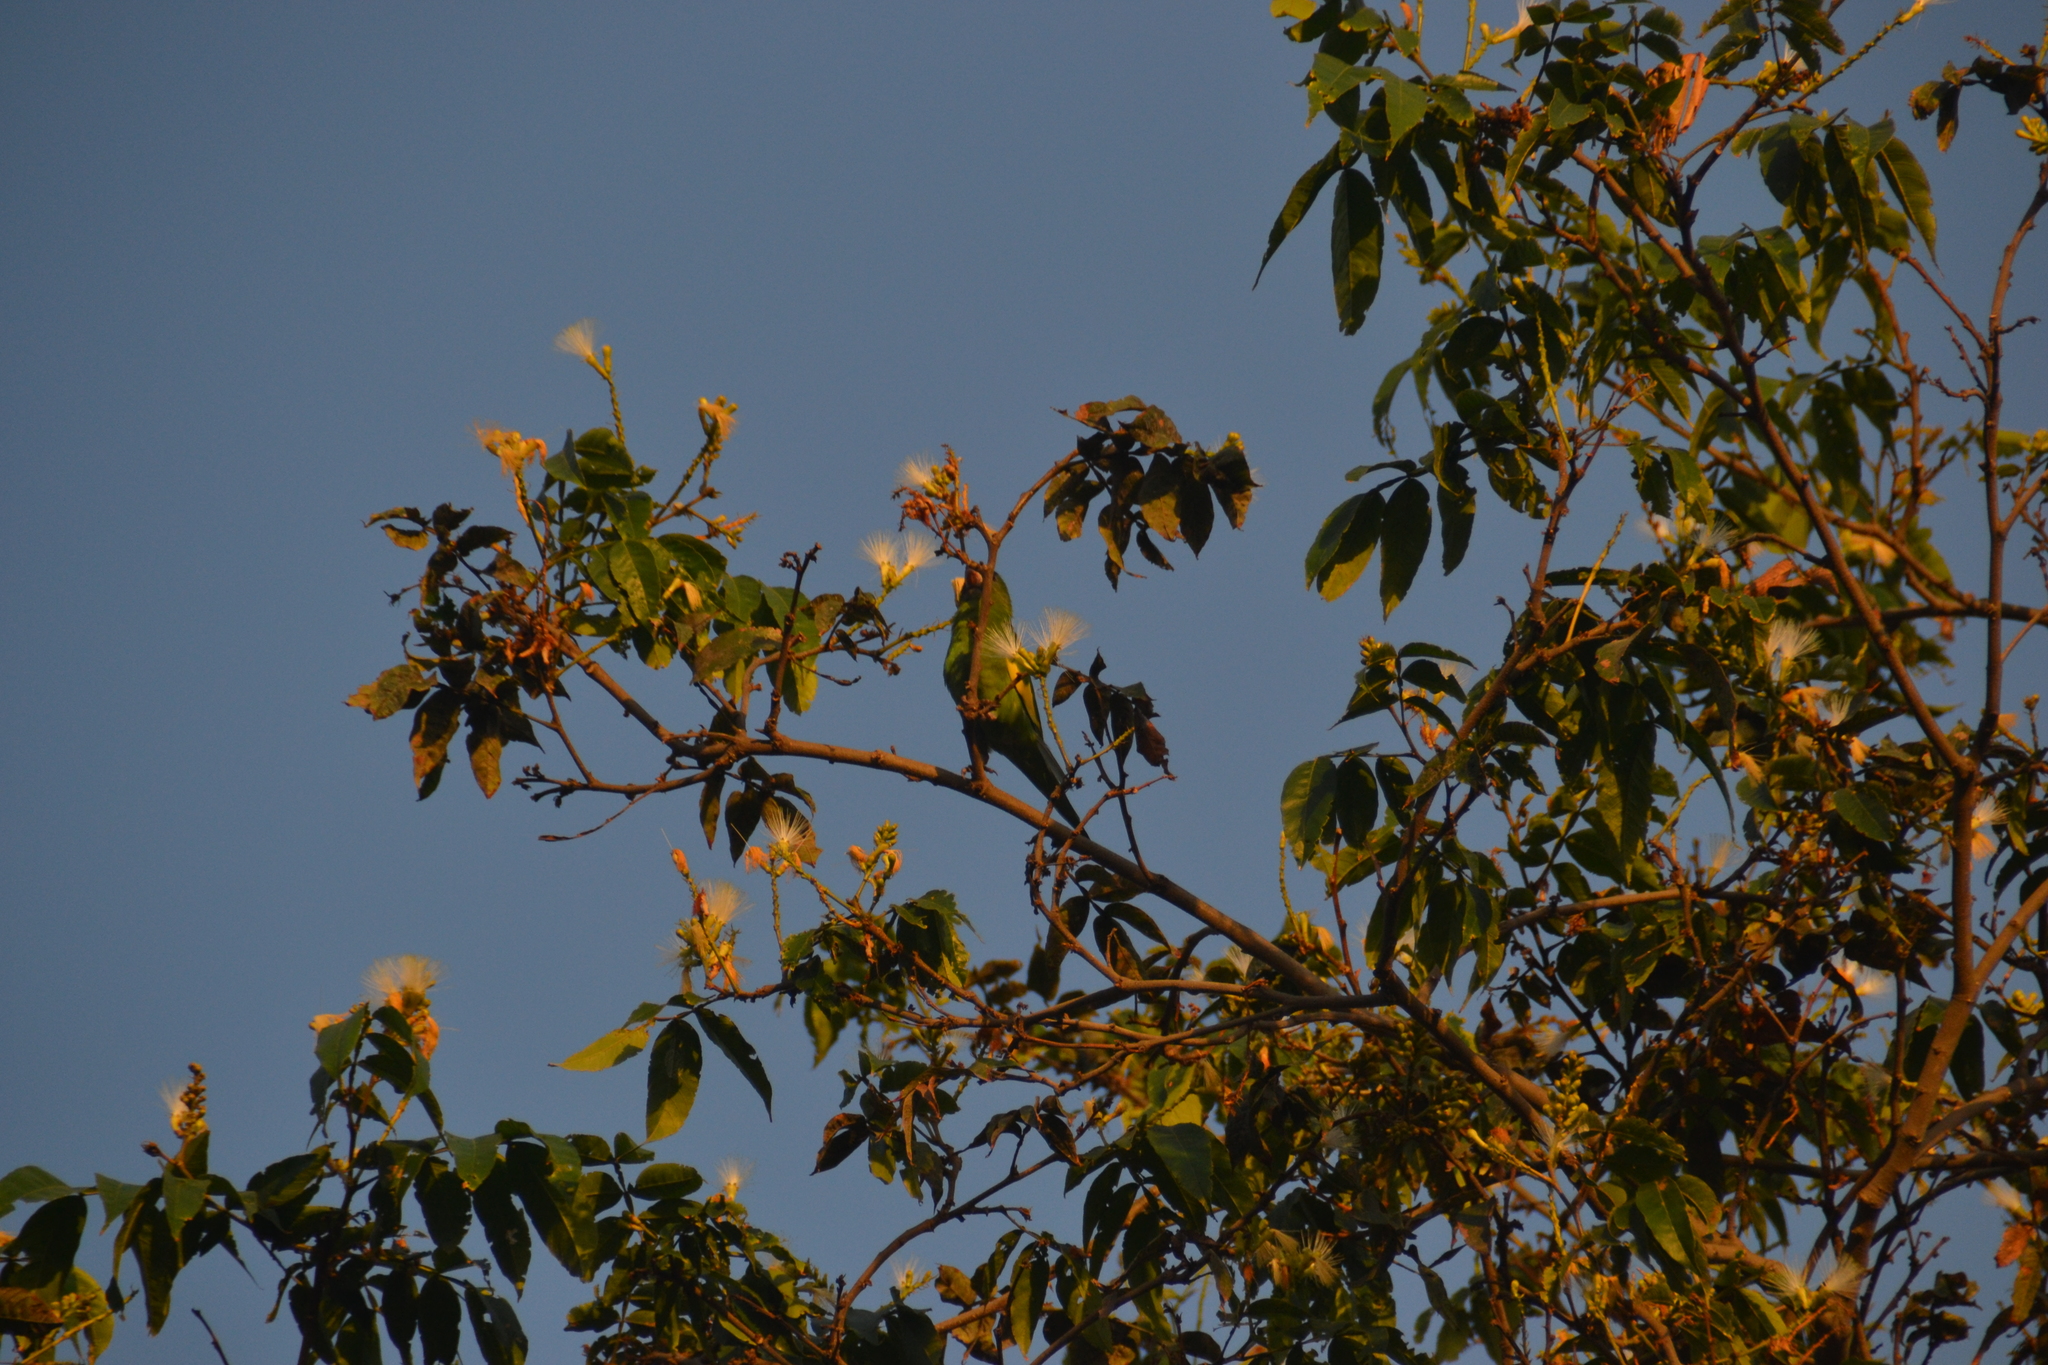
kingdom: Animalia
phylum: Chordata
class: Aves
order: Psittaciformes
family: Psittacidae
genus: Brotogeris
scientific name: Brotogeris versicolurus
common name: White-winged parakeet
